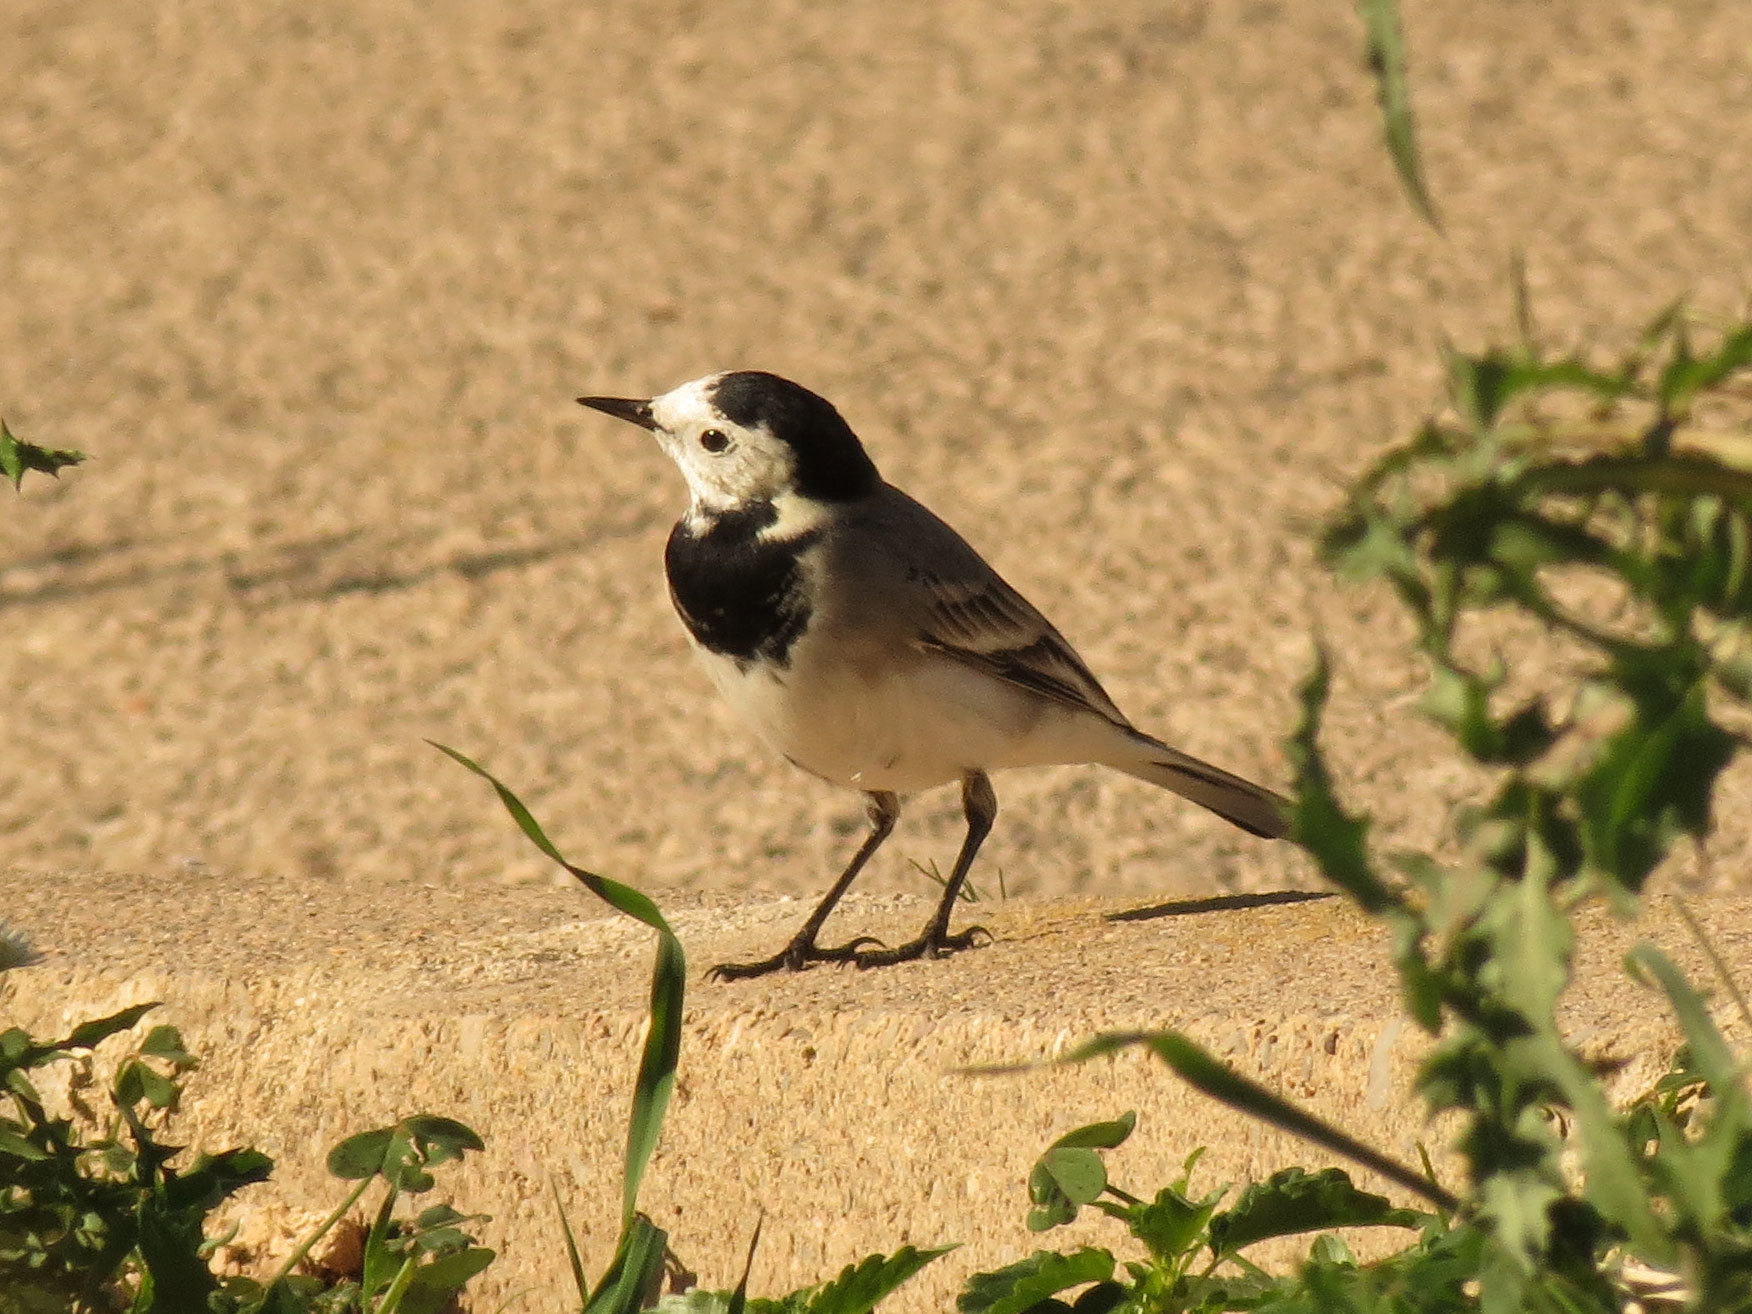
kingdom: Animalia
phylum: Chordata
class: Aves
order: Passeriformes
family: Motacillidae
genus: Motacilla
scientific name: Motacilla alba
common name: White wagtail
